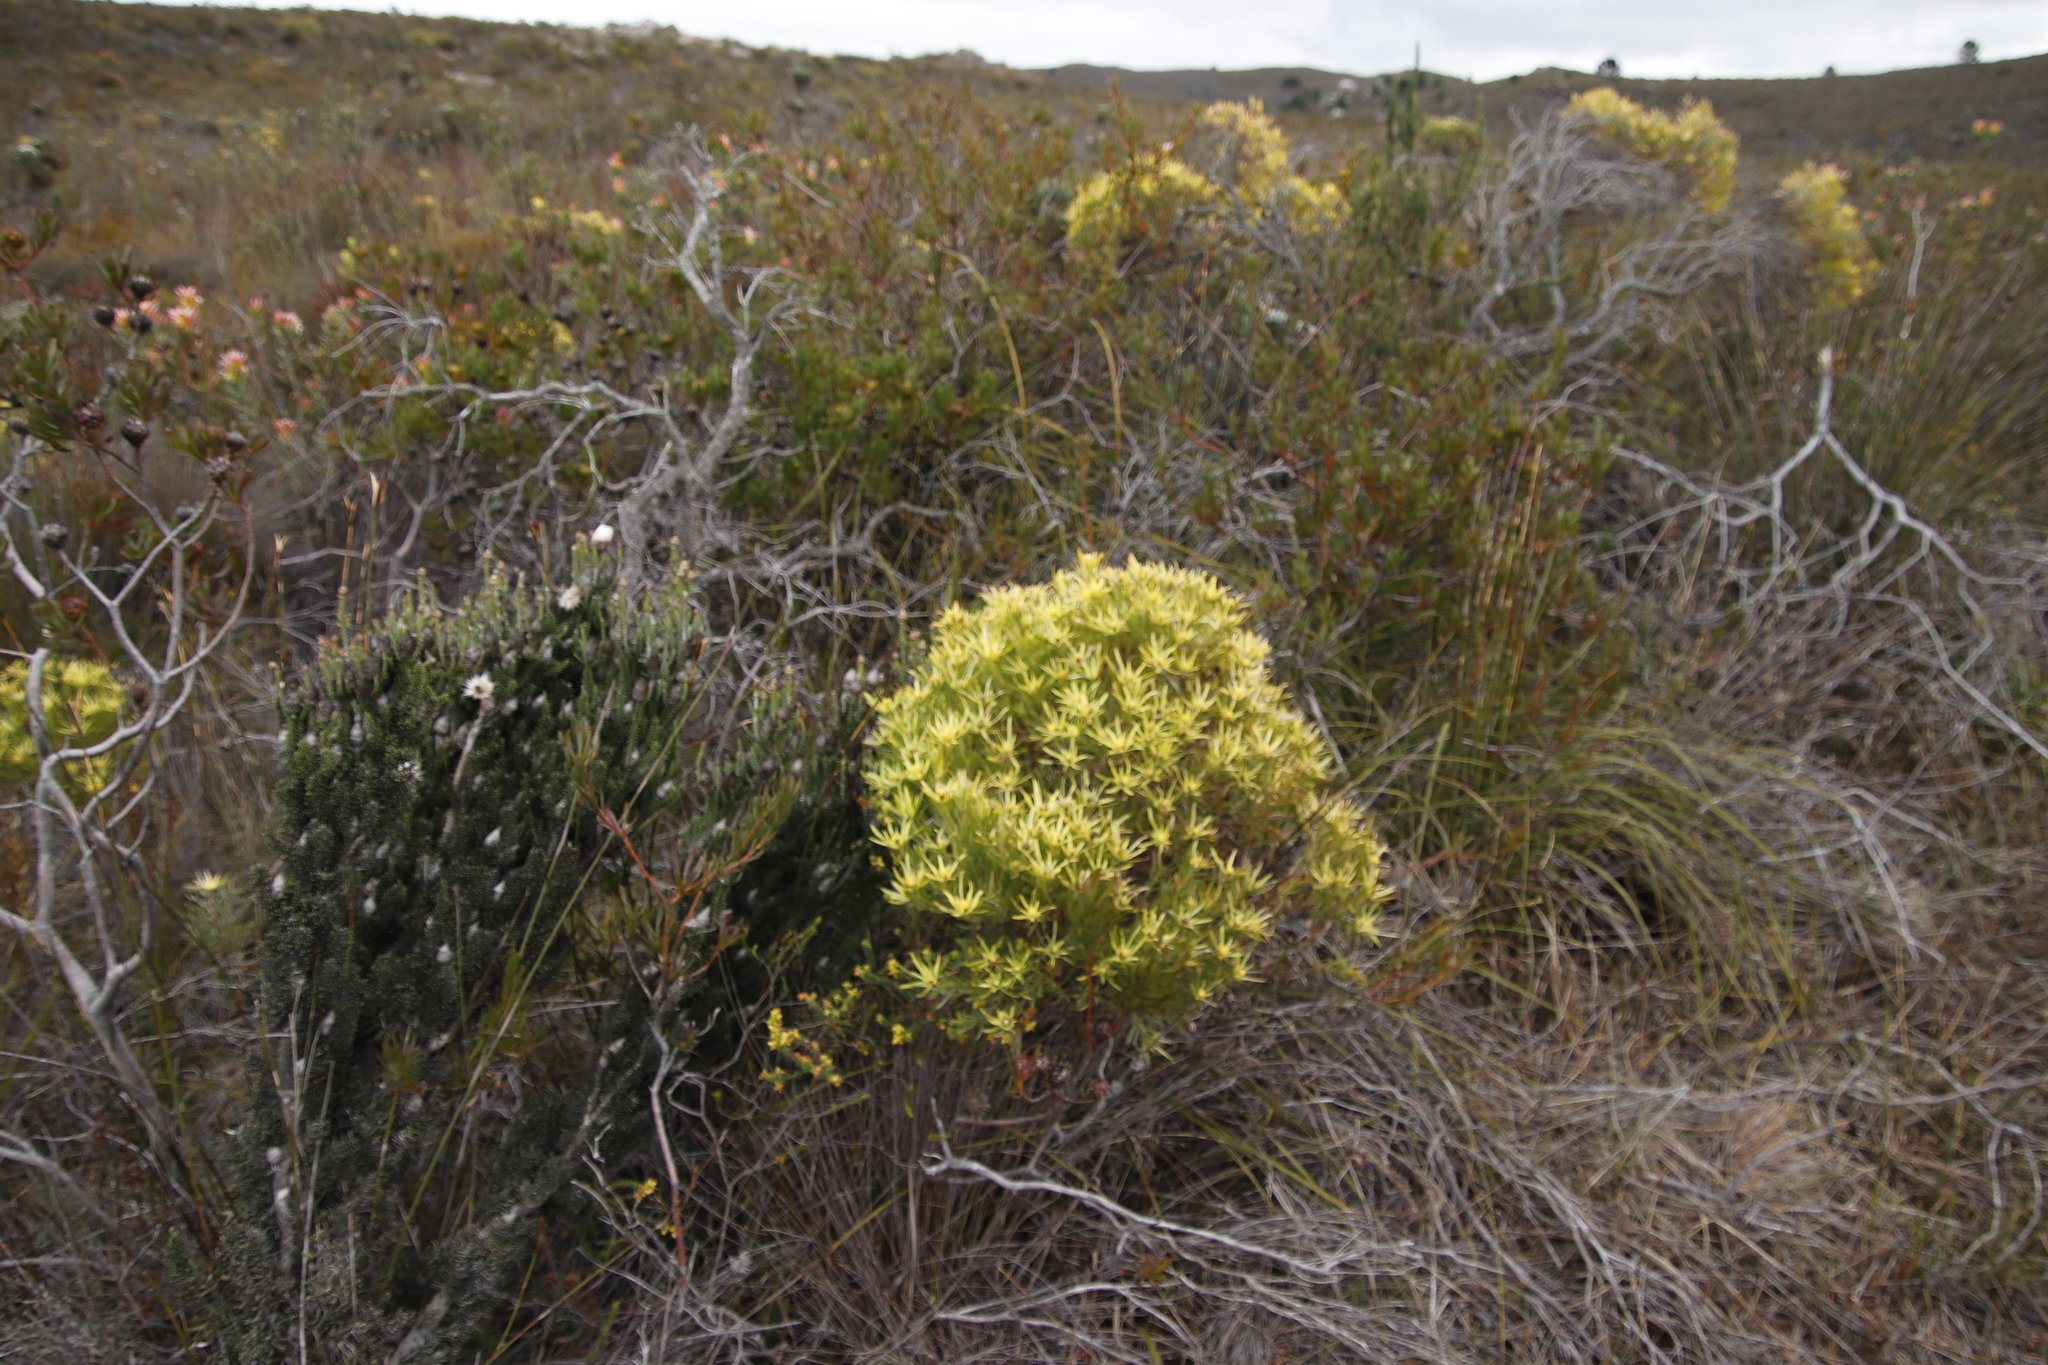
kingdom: Plantae
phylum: Tracheophyta
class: Magnoliopsida
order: Proteales
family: Proteaceae
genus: Leucadendron
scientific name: Leucadendron xanthoconus
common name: Sickle-leaf conebush
